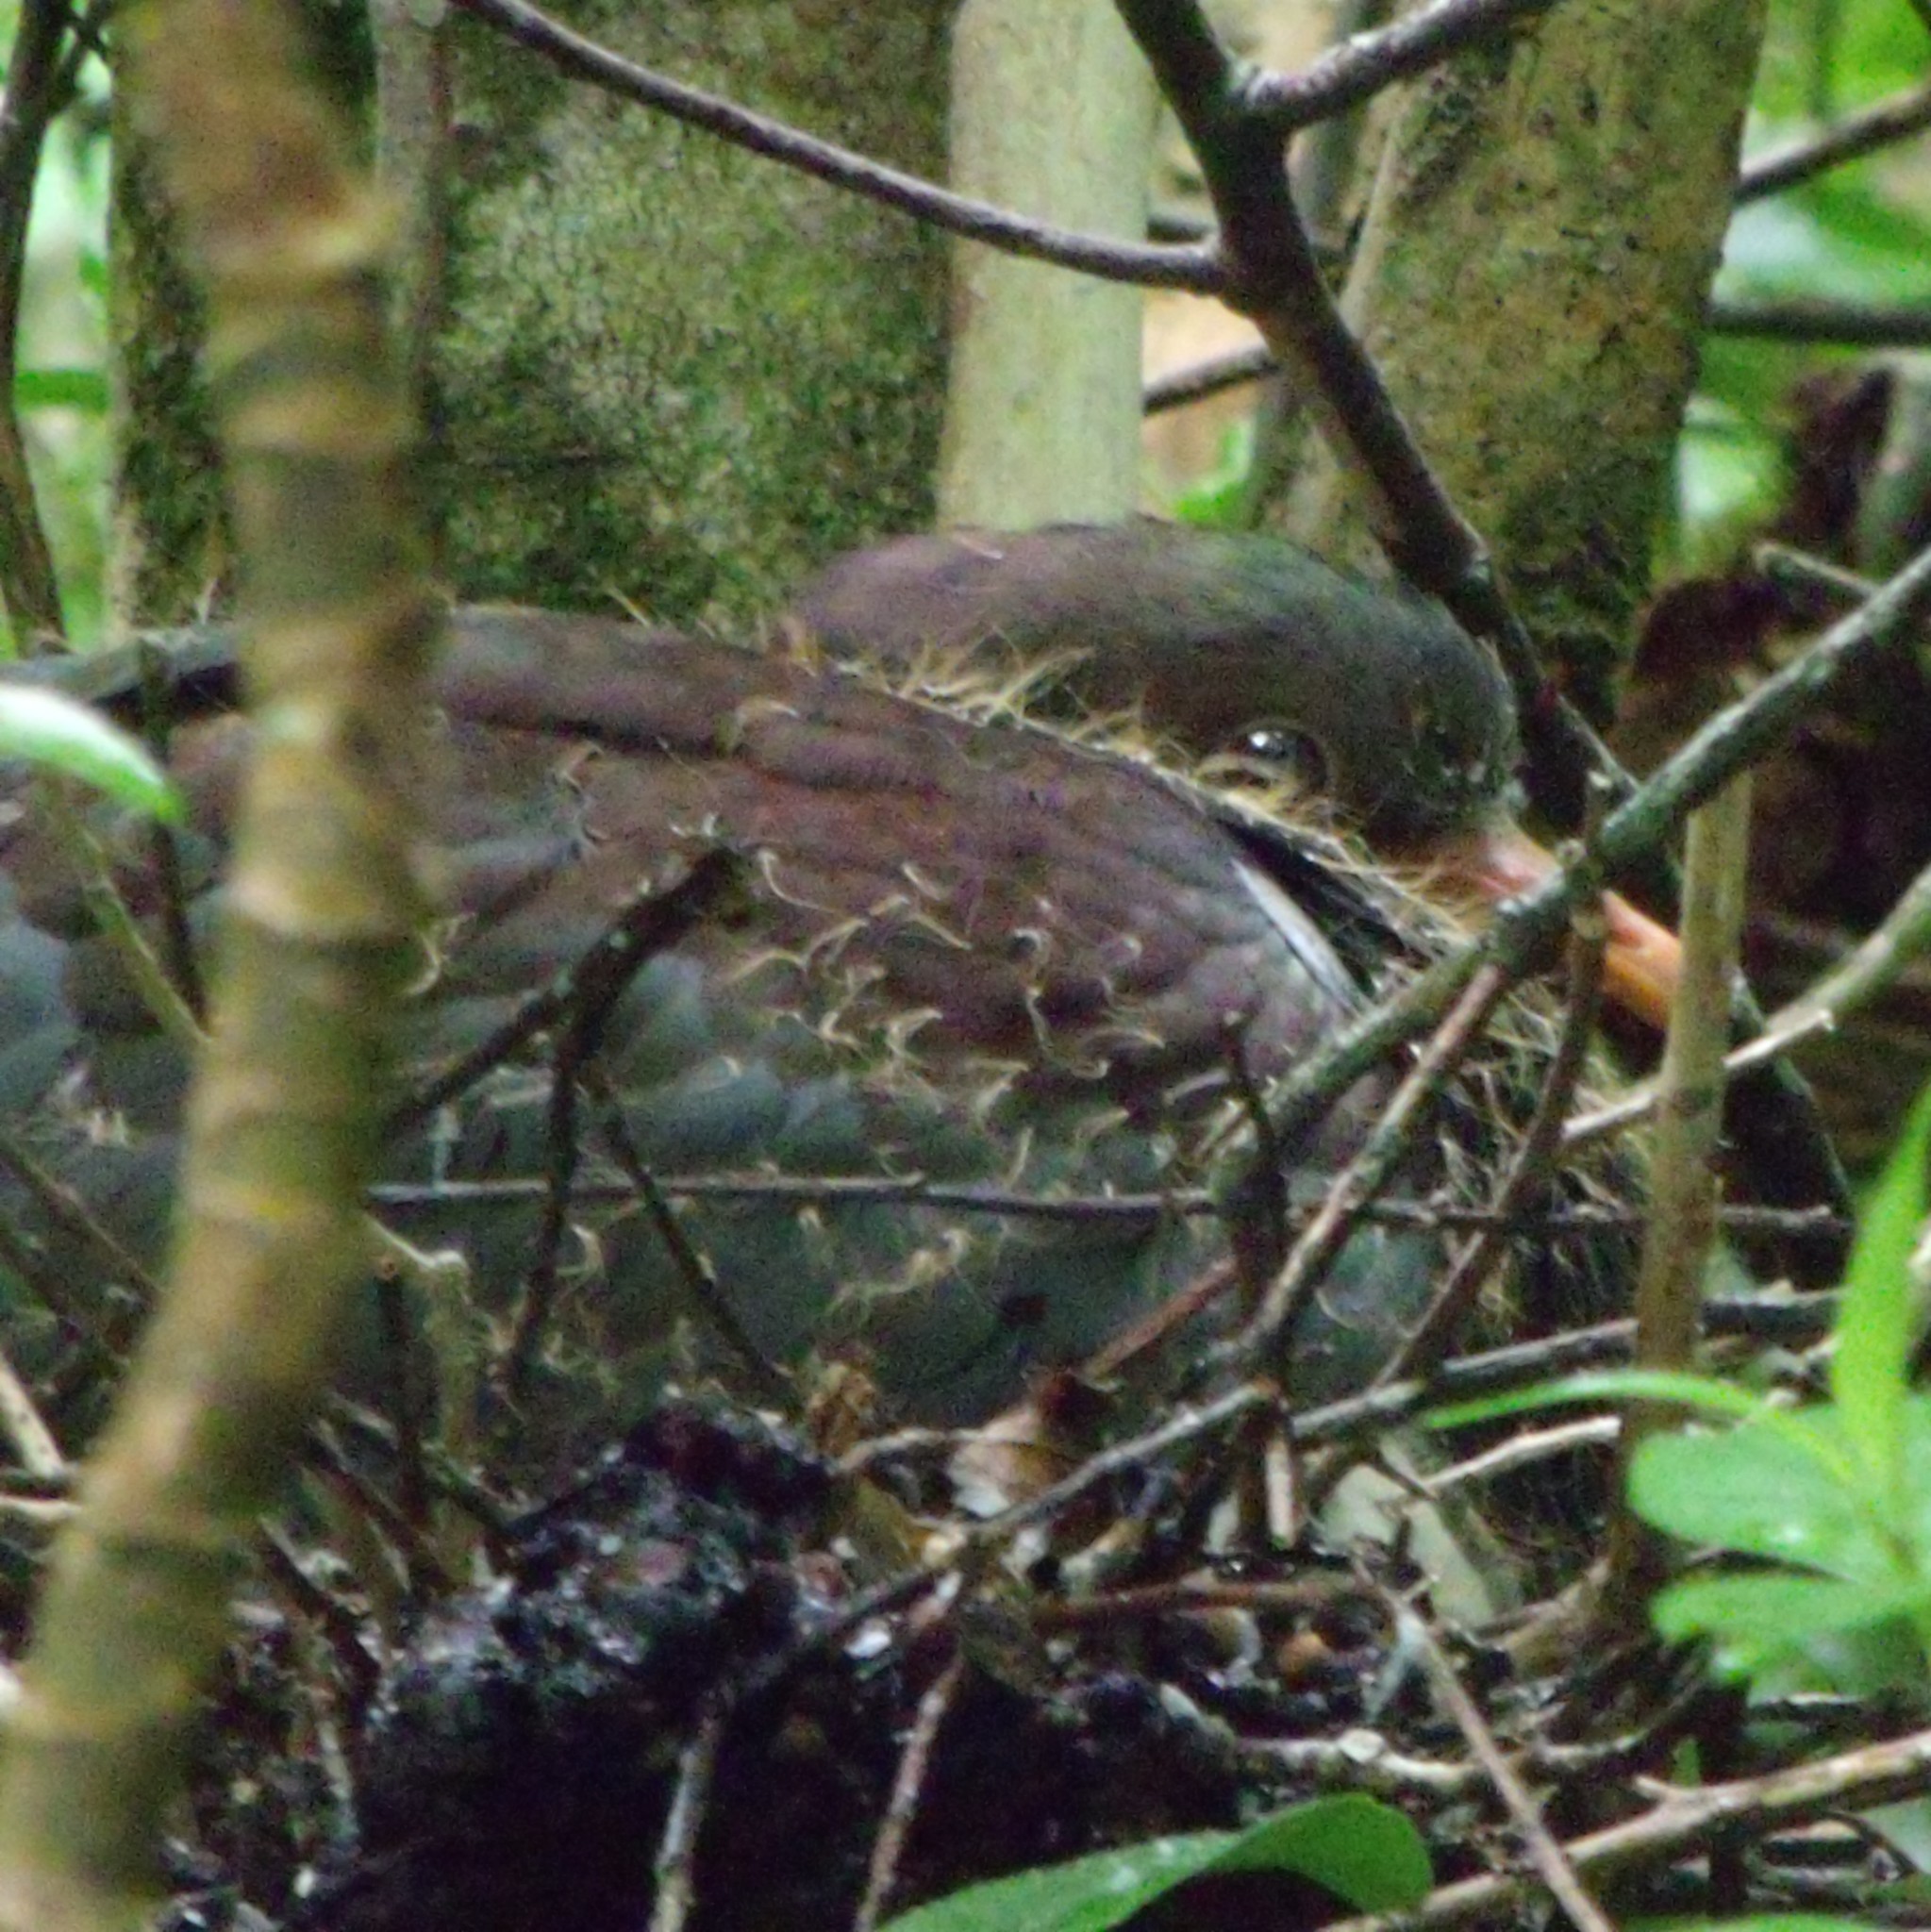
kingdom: Animalia
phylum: Chordata
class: Aves
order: Columbiformes
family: Columbidae
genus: Hemiphaga
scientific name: Hemiphaga novaeseelandiae
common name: New zealand pigeon
